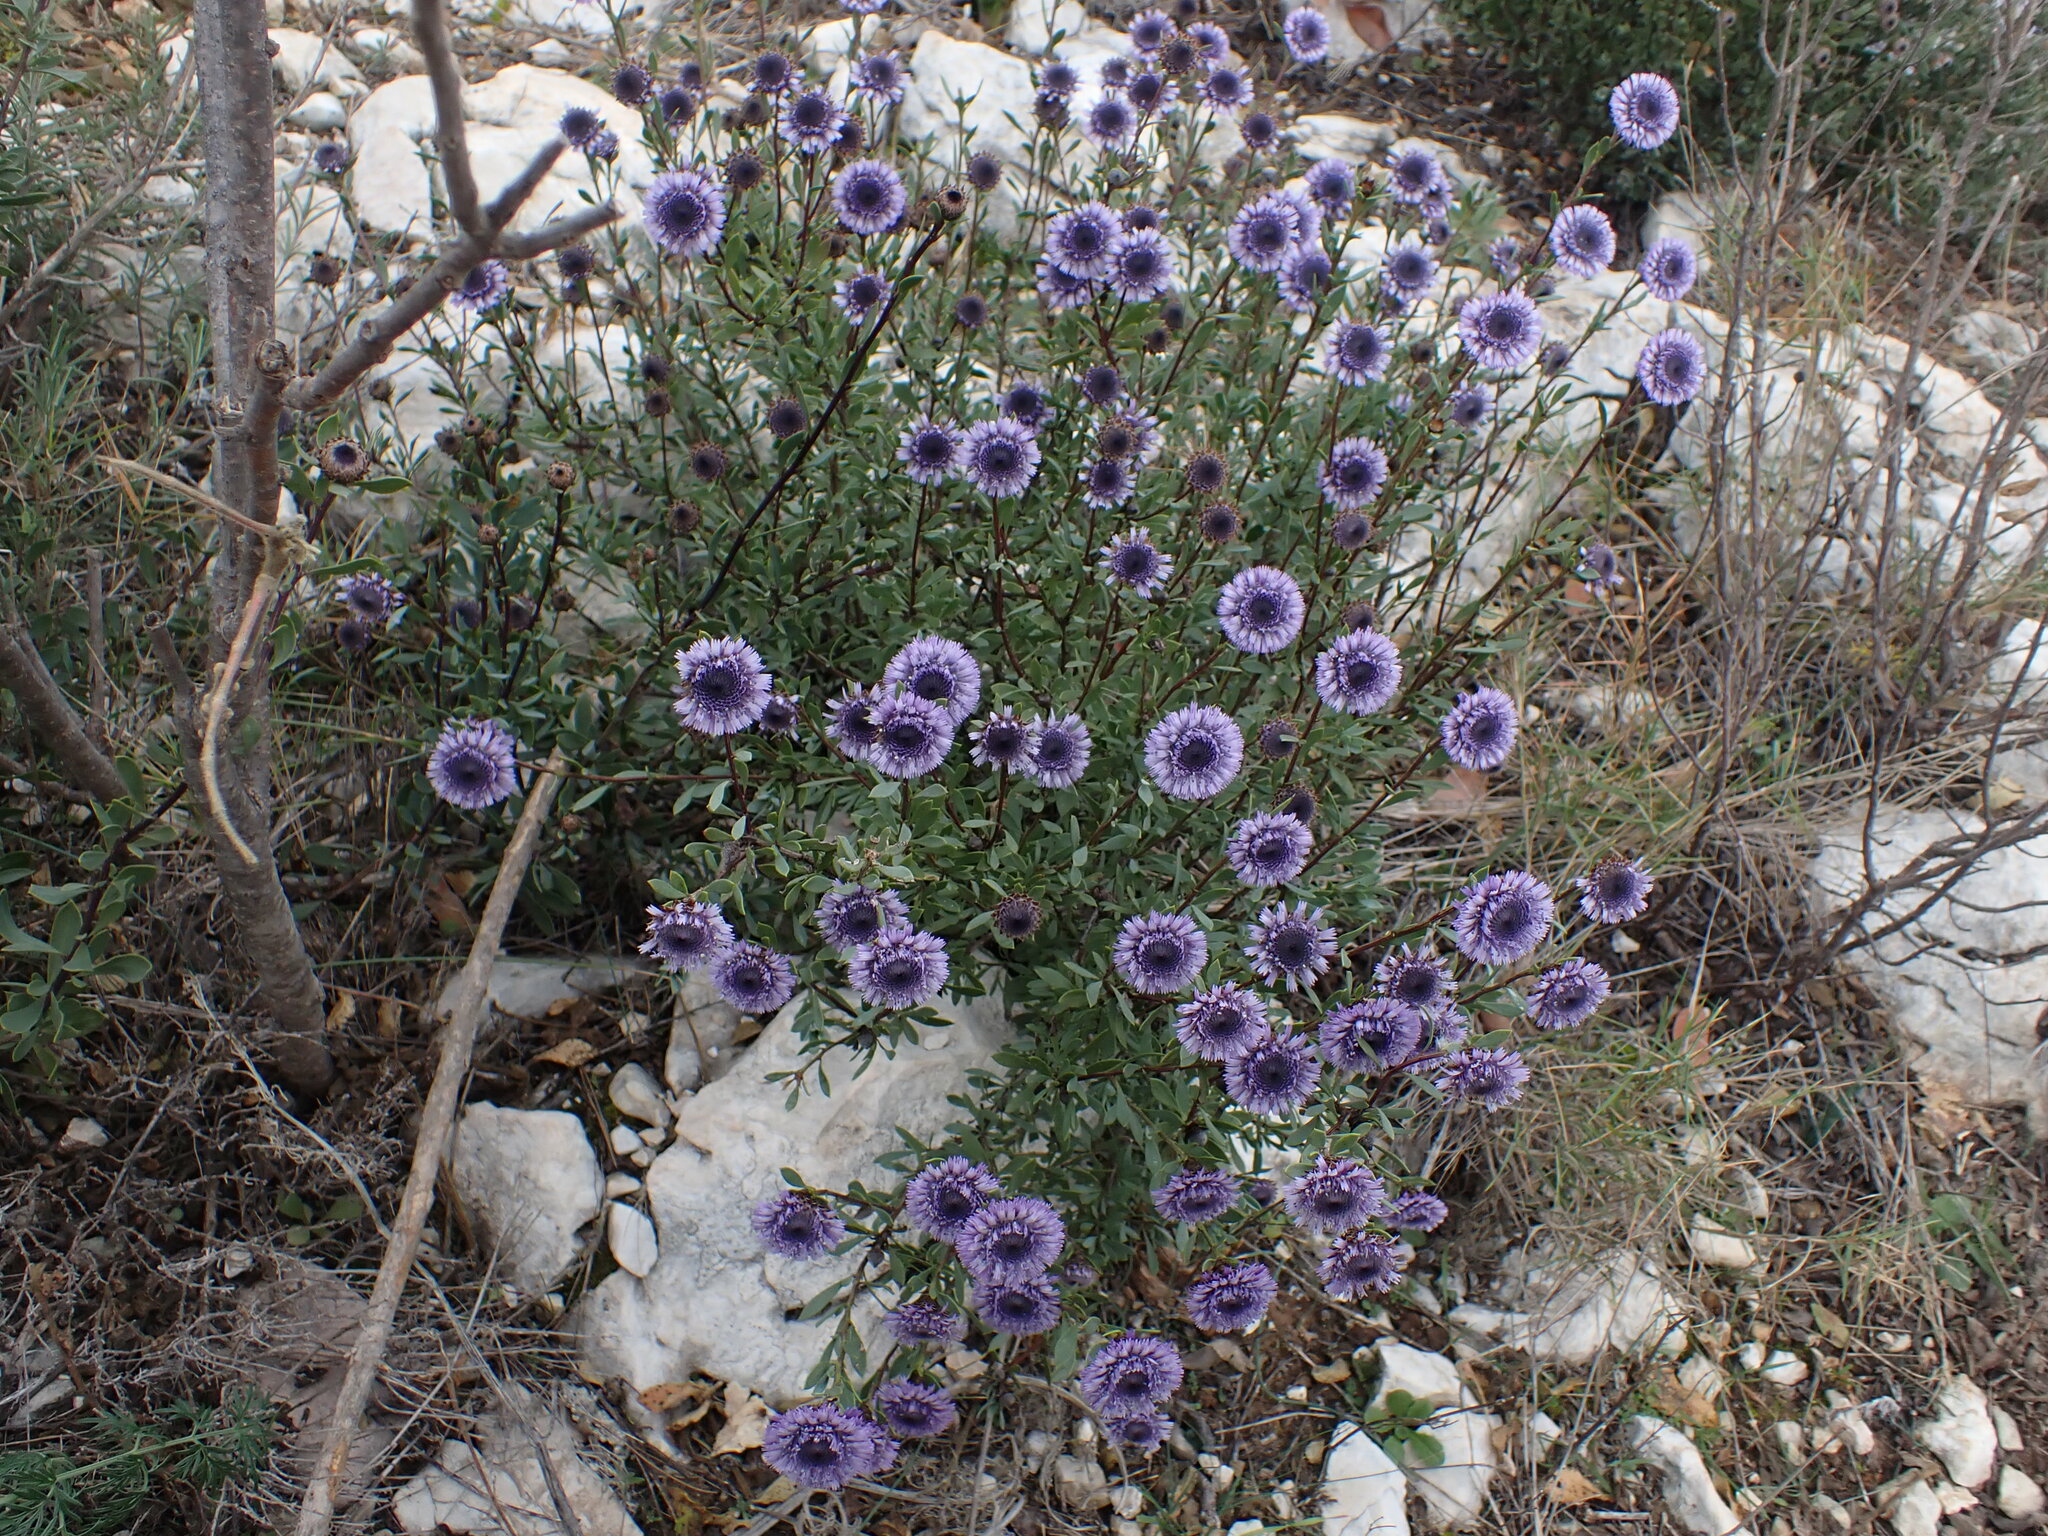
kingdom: Plantae
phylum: Tracheophyta
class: Magnoliopsida
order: Lamiales
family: Plantaginaceae
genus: Globularia
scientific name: Globularia alypum
